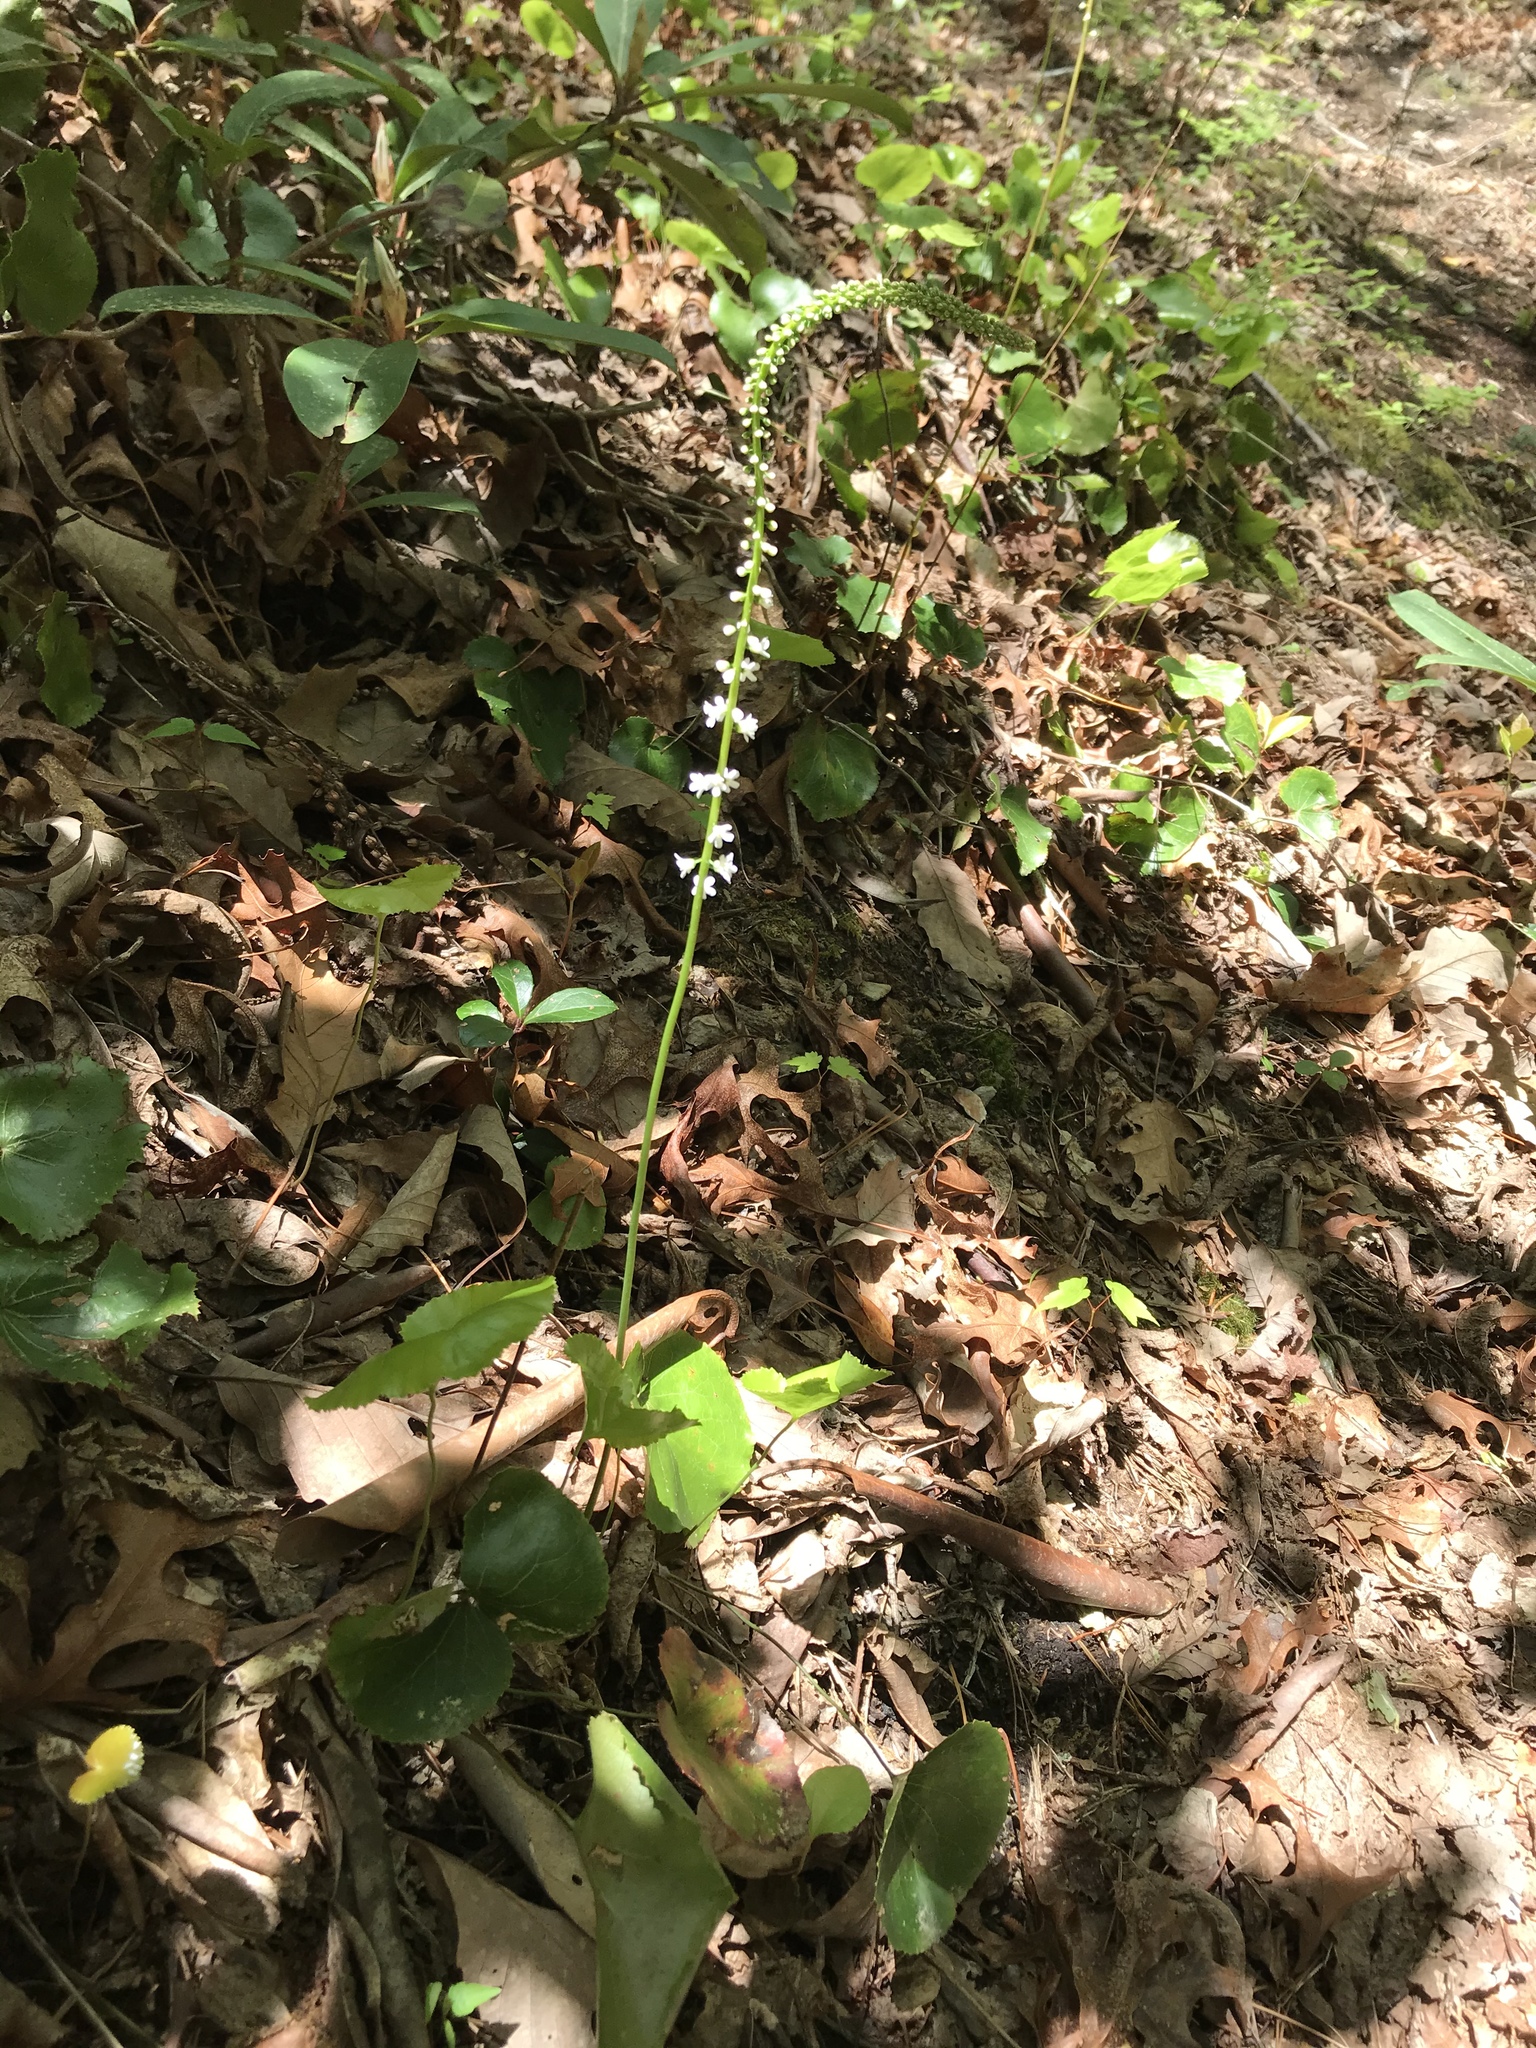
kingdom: Plantae
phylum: Tracheophyta
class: Magnoliopsida
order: Ericales
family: Diapensiaceae
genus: Galax
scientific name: Galax urceolata
